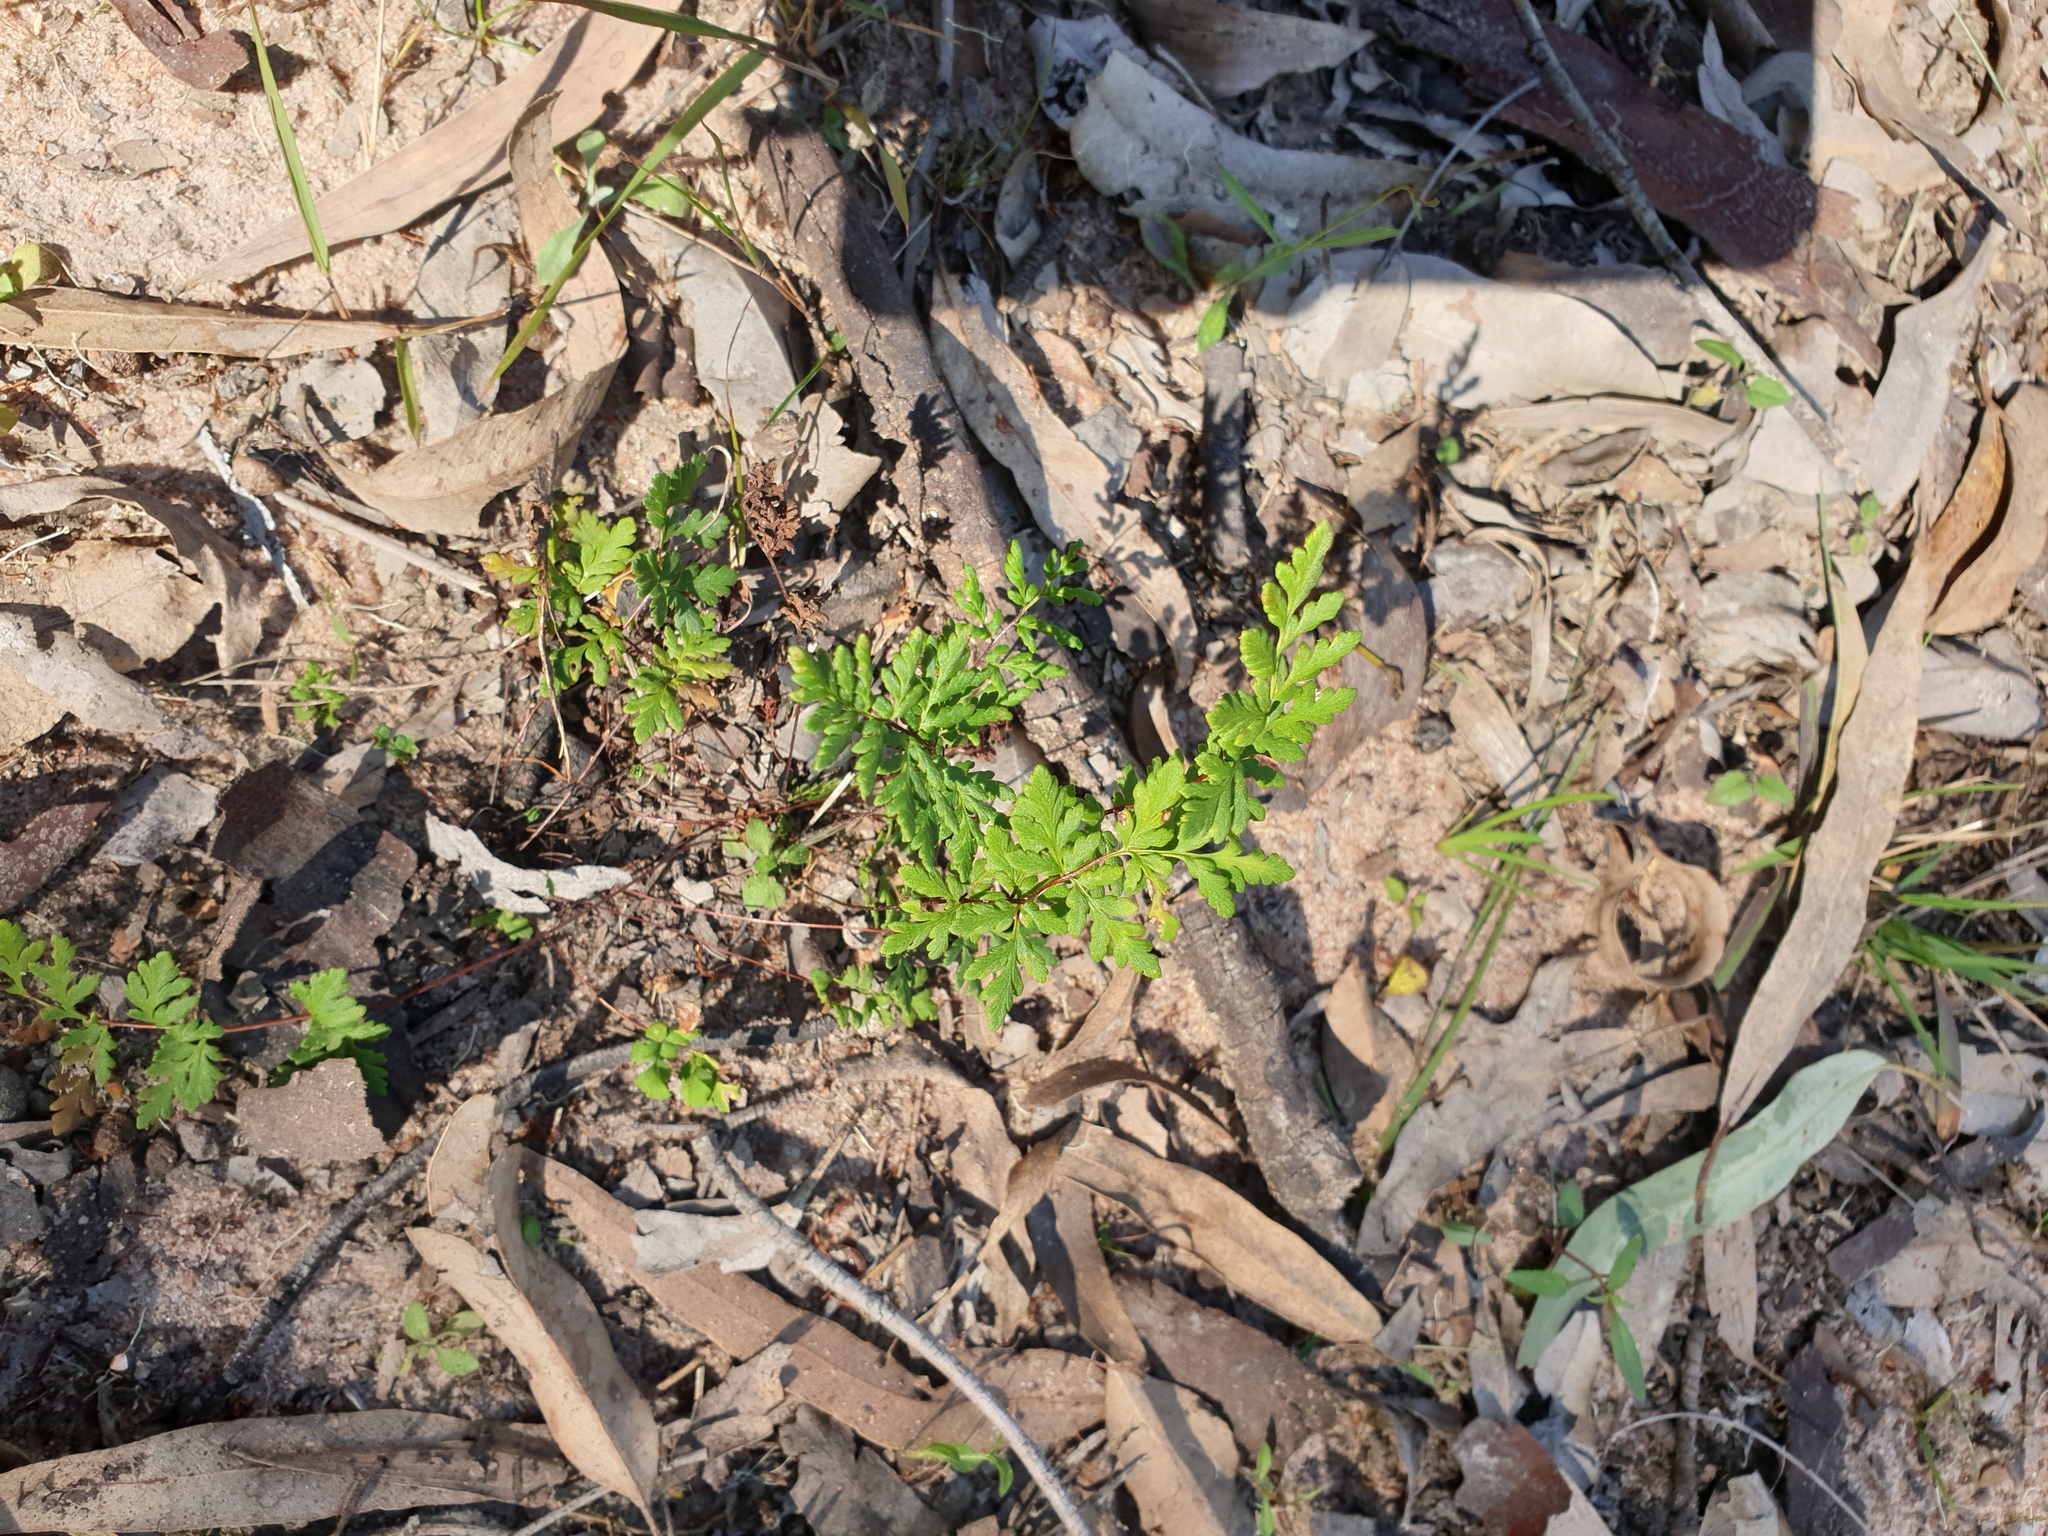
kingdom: Plantae
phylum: Tracheophyta
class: Polypodiopsida
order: Polypodiales
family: Pteridaceae
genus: Cheilanthes
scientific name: Cheilanthes sieberi
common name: Mulga fern
